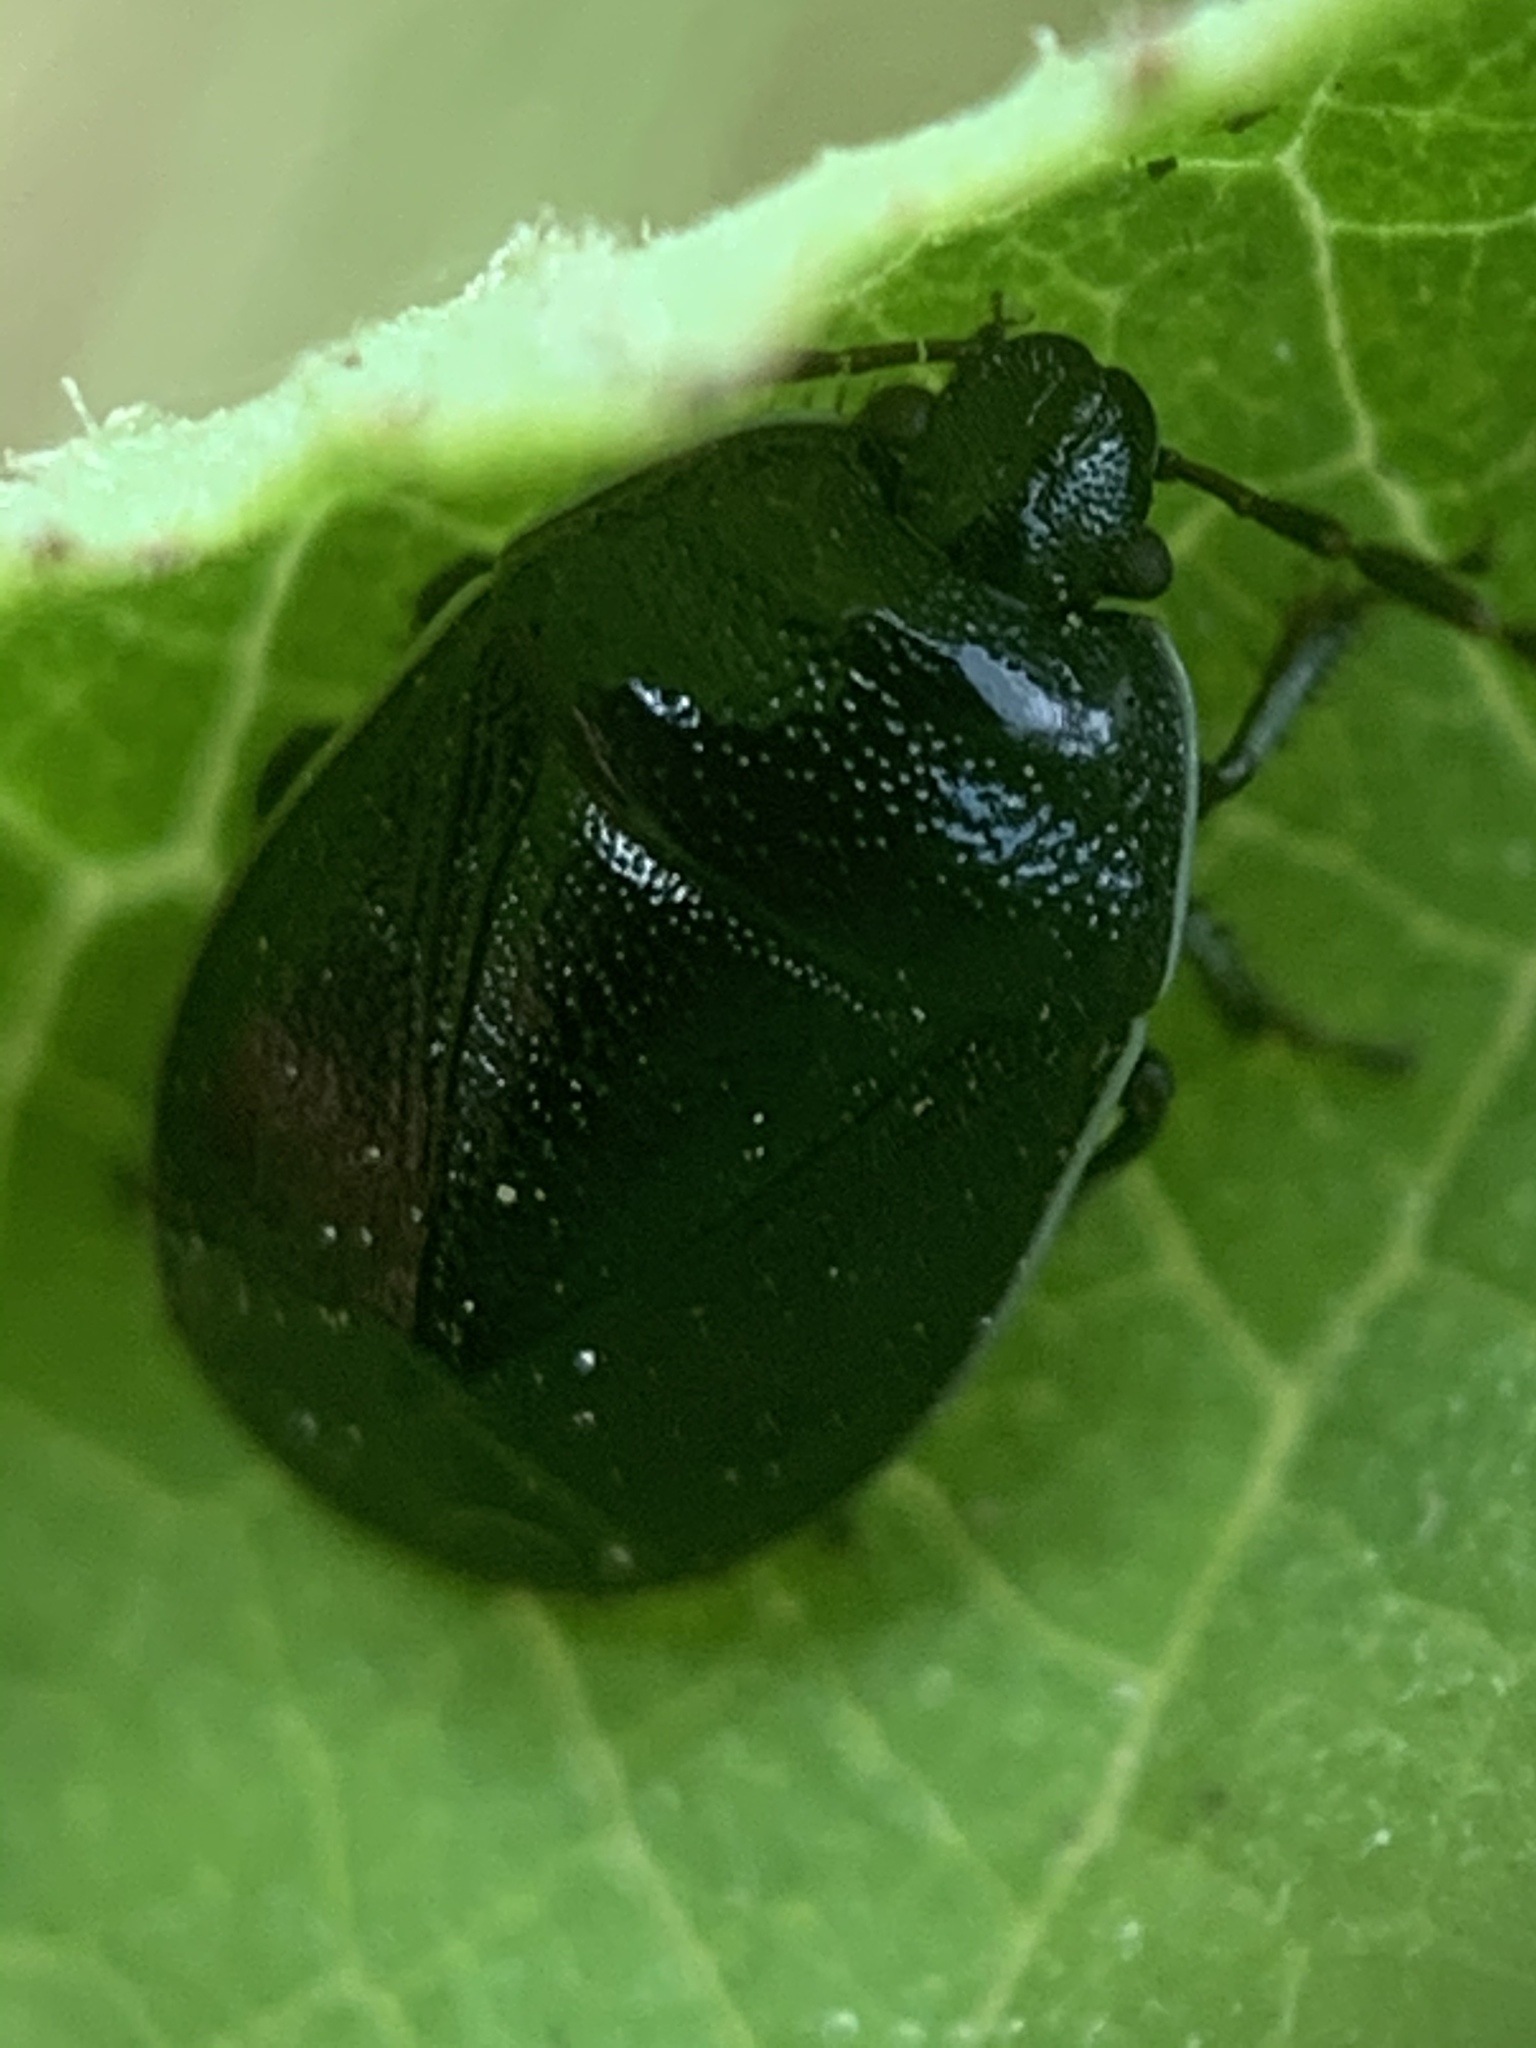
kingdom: Animalia
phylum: Arthropoda
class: Insecta
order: Hemiptera
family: Cydnidae
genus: Sehirus
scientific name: Sehirus cinctus
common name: White-margined burrower bug
